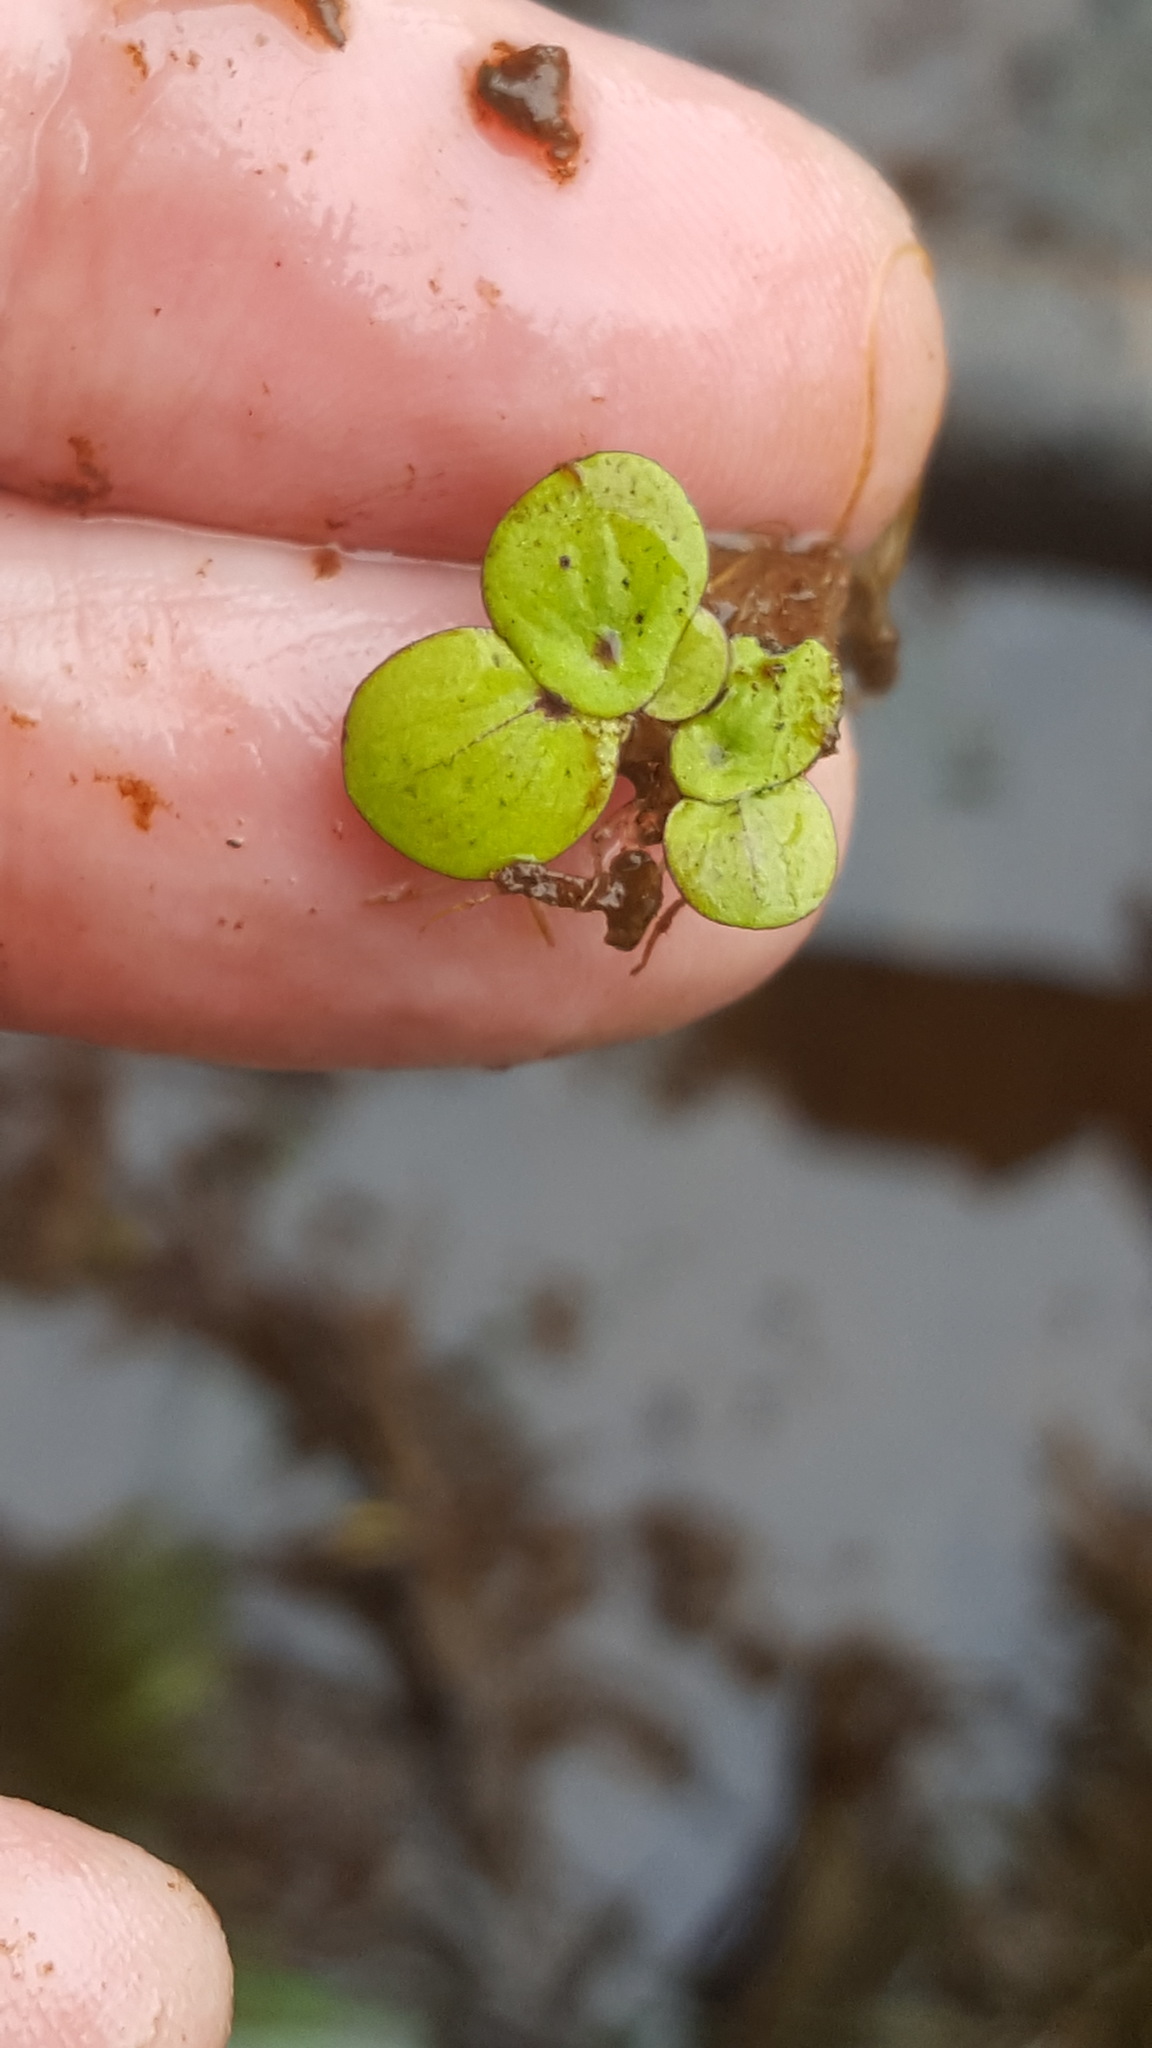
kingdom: Plantae
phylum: Tracheophyta
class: Liliopsida
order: Alismatales
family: Araceae
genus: Spirodela
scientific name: Spirodela polyrhiza
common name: Great duckweed
